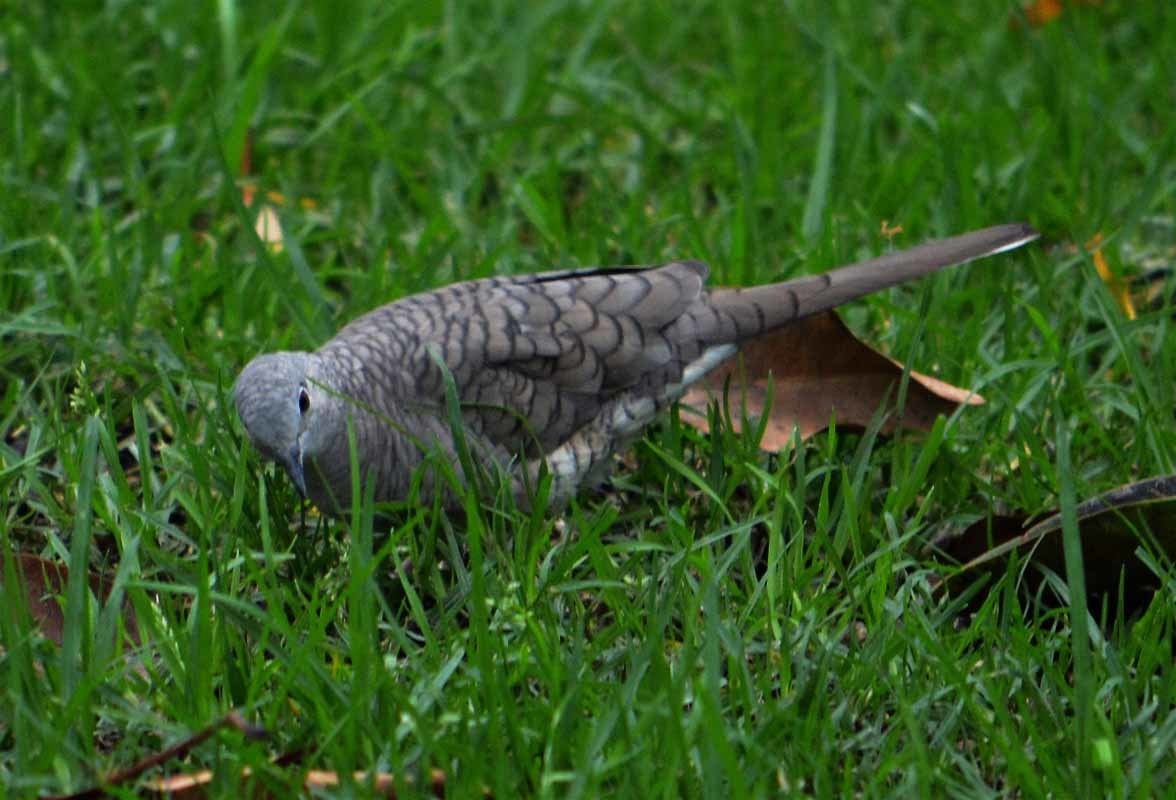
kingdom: Animalia
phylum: Chordata
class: Aves
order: Columbiformes
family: Columbidae
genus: Columbina
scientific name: Columbina inca
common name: Inca dove
